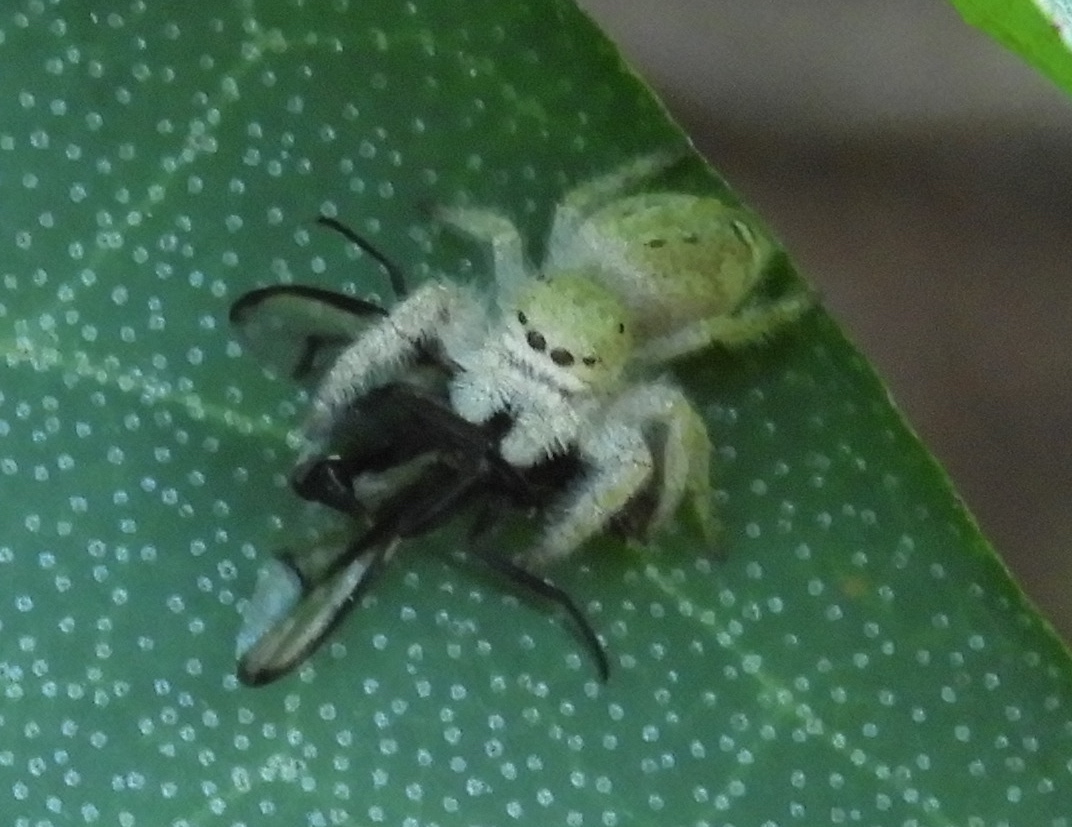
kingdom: Animalia
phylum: Arthropoda
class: Arachnida
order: Araneae
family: Salticidae
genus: Paraphidippus
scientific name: Paraphidippus fartilis
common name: Jumping spiders
